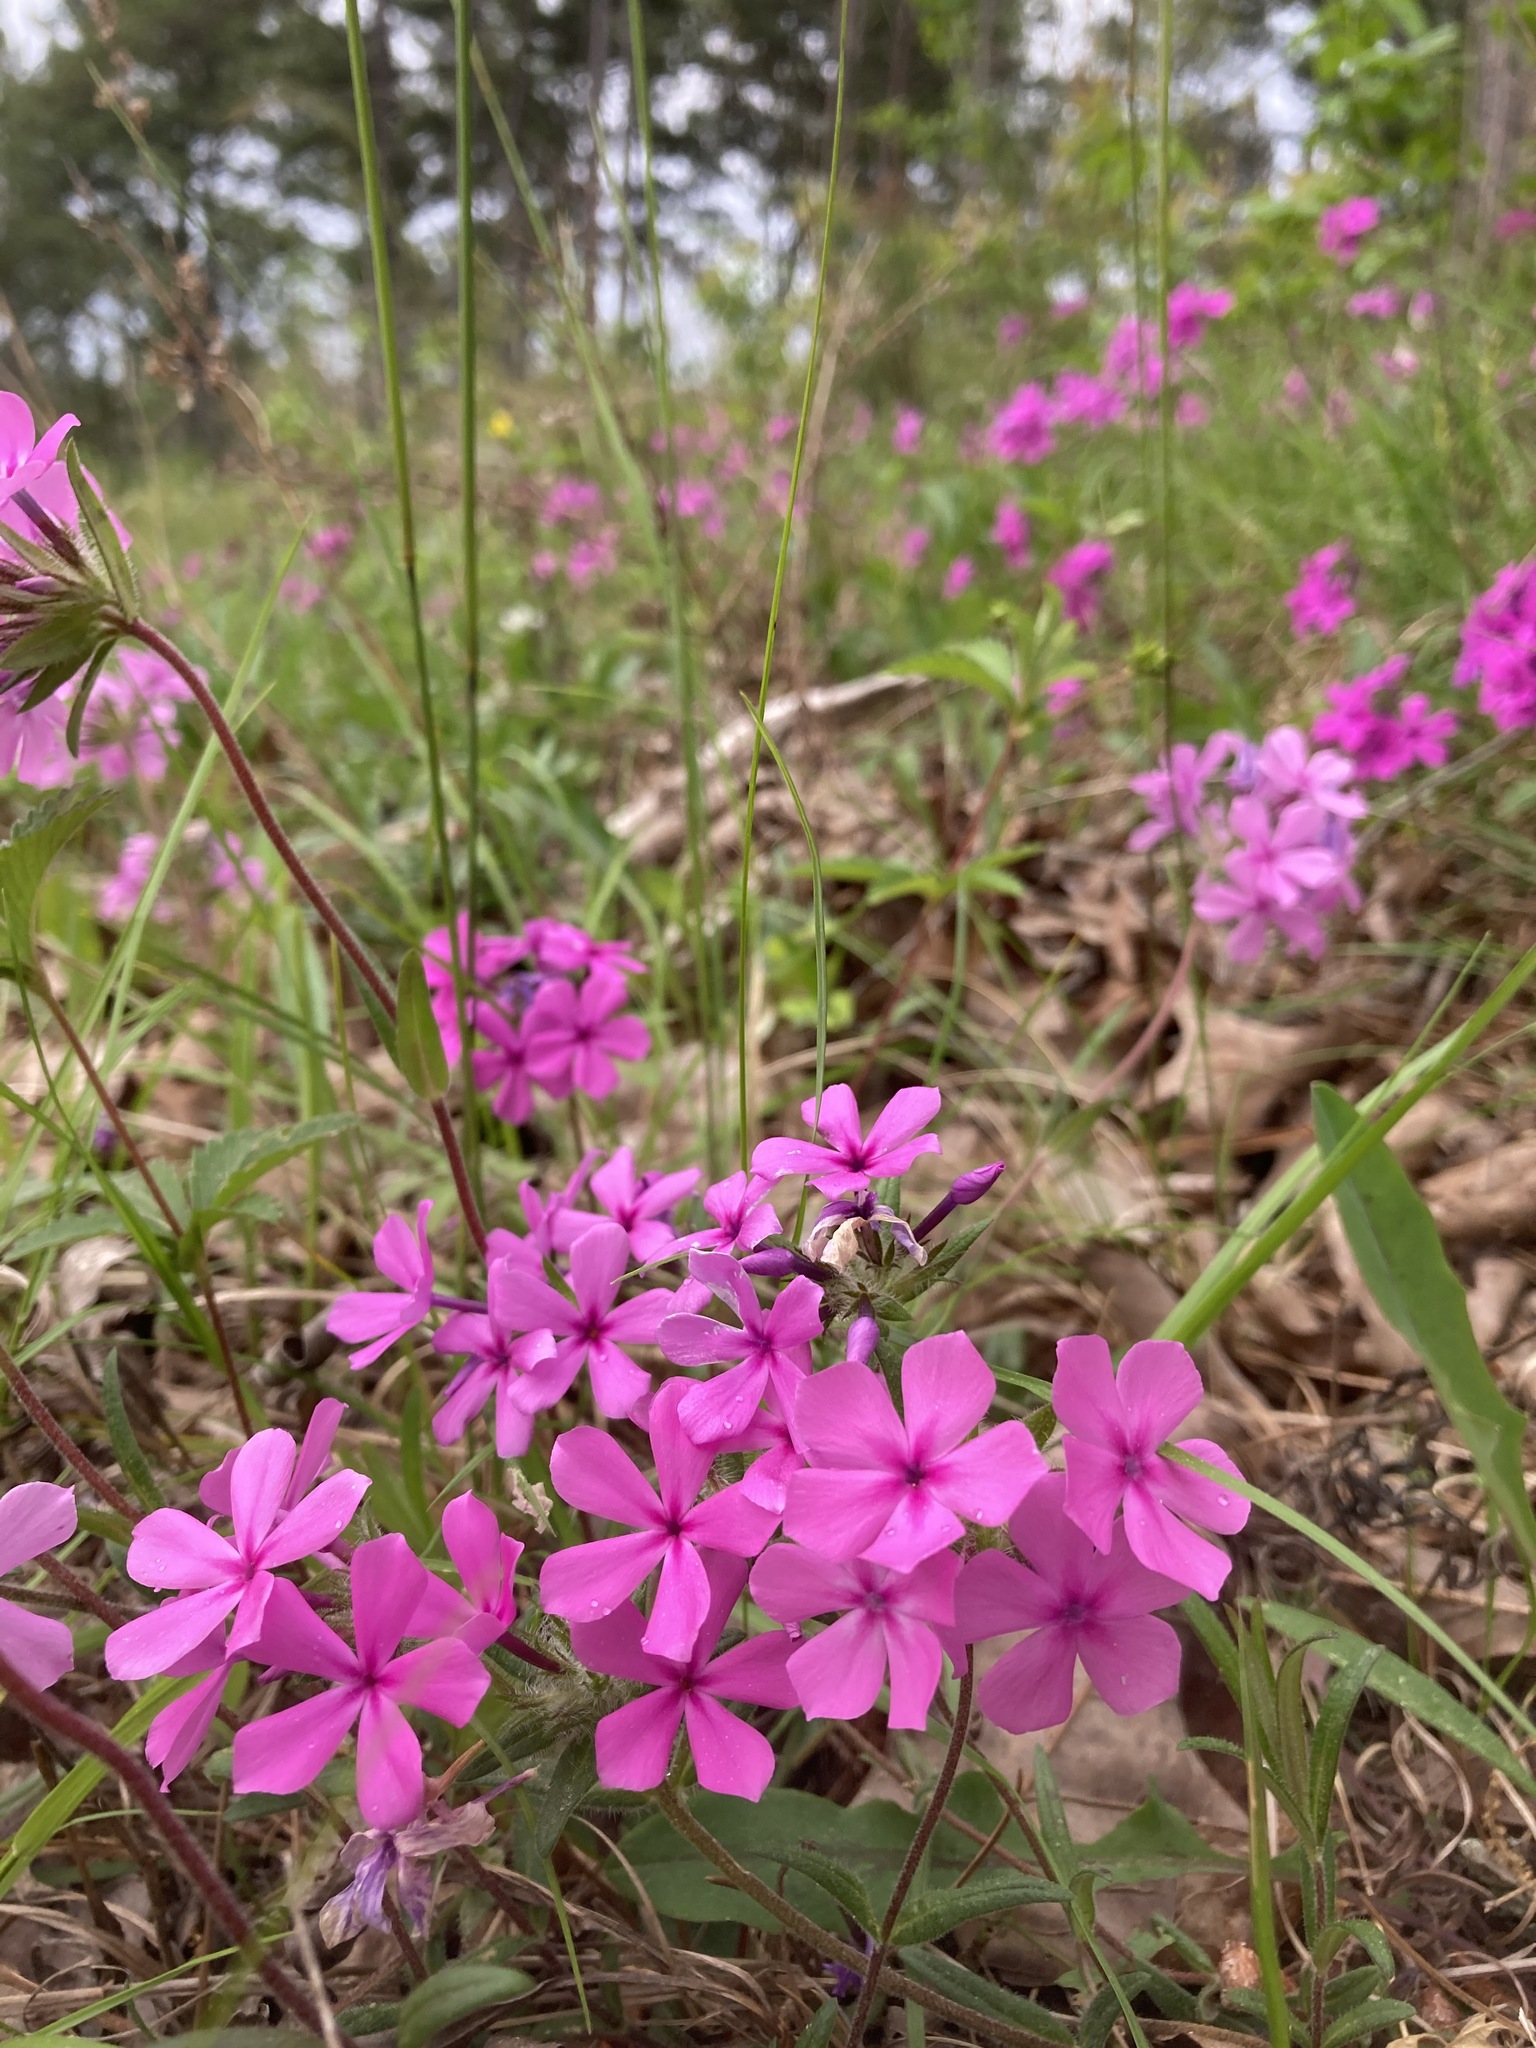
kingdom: Plantae
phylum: Tracheophyta
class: Magnoliopsida
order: Ericales
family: Polemoniaceae
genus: Phlox
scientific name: Phlox amoena
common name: Hairy phlox
